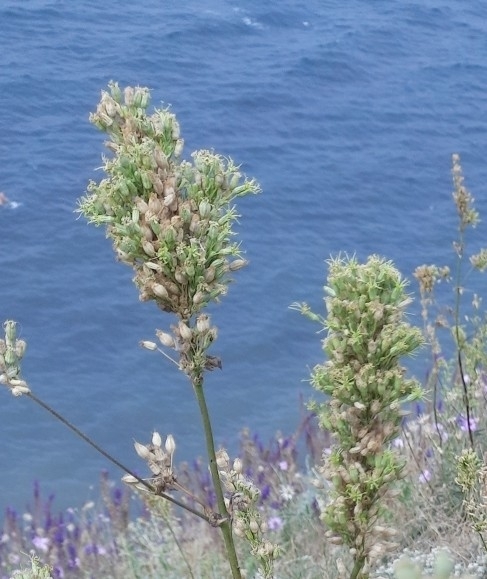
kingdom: Plantae
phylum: Tracheophyta
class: Magnoliopsida
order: Caryophyllales
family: Caryophyllaceae
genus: Silene
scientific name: Silene densiflora
